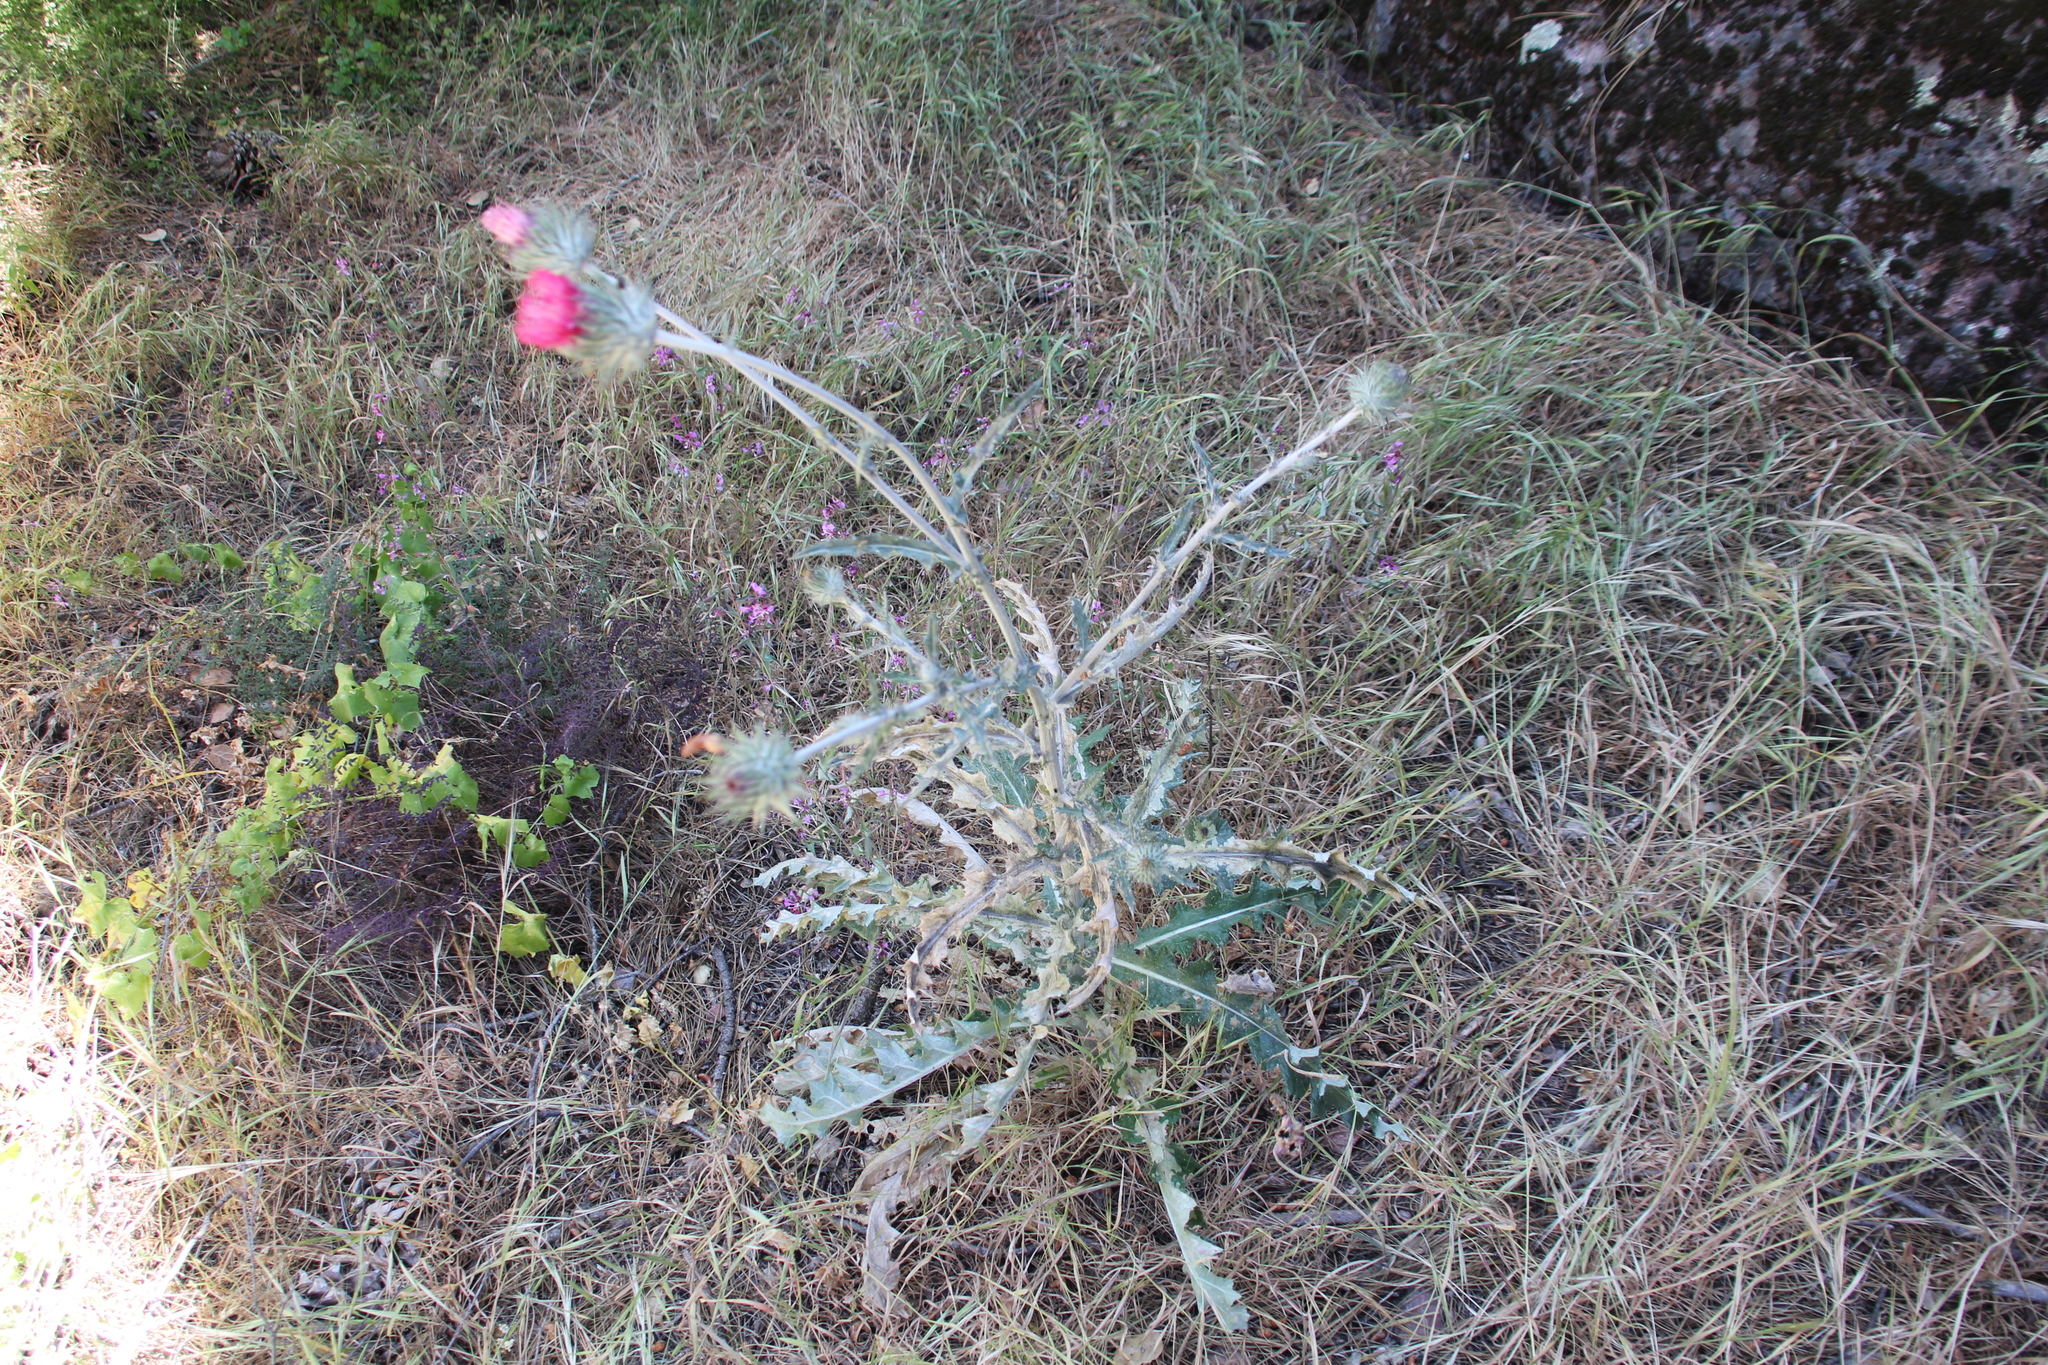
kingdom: Plantae
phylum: Tracheophyta
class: Magnoliopsida
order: Asterales
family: Asteraceae
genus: Cirsium
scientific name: Cirsium occidentale
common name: Western thistle
